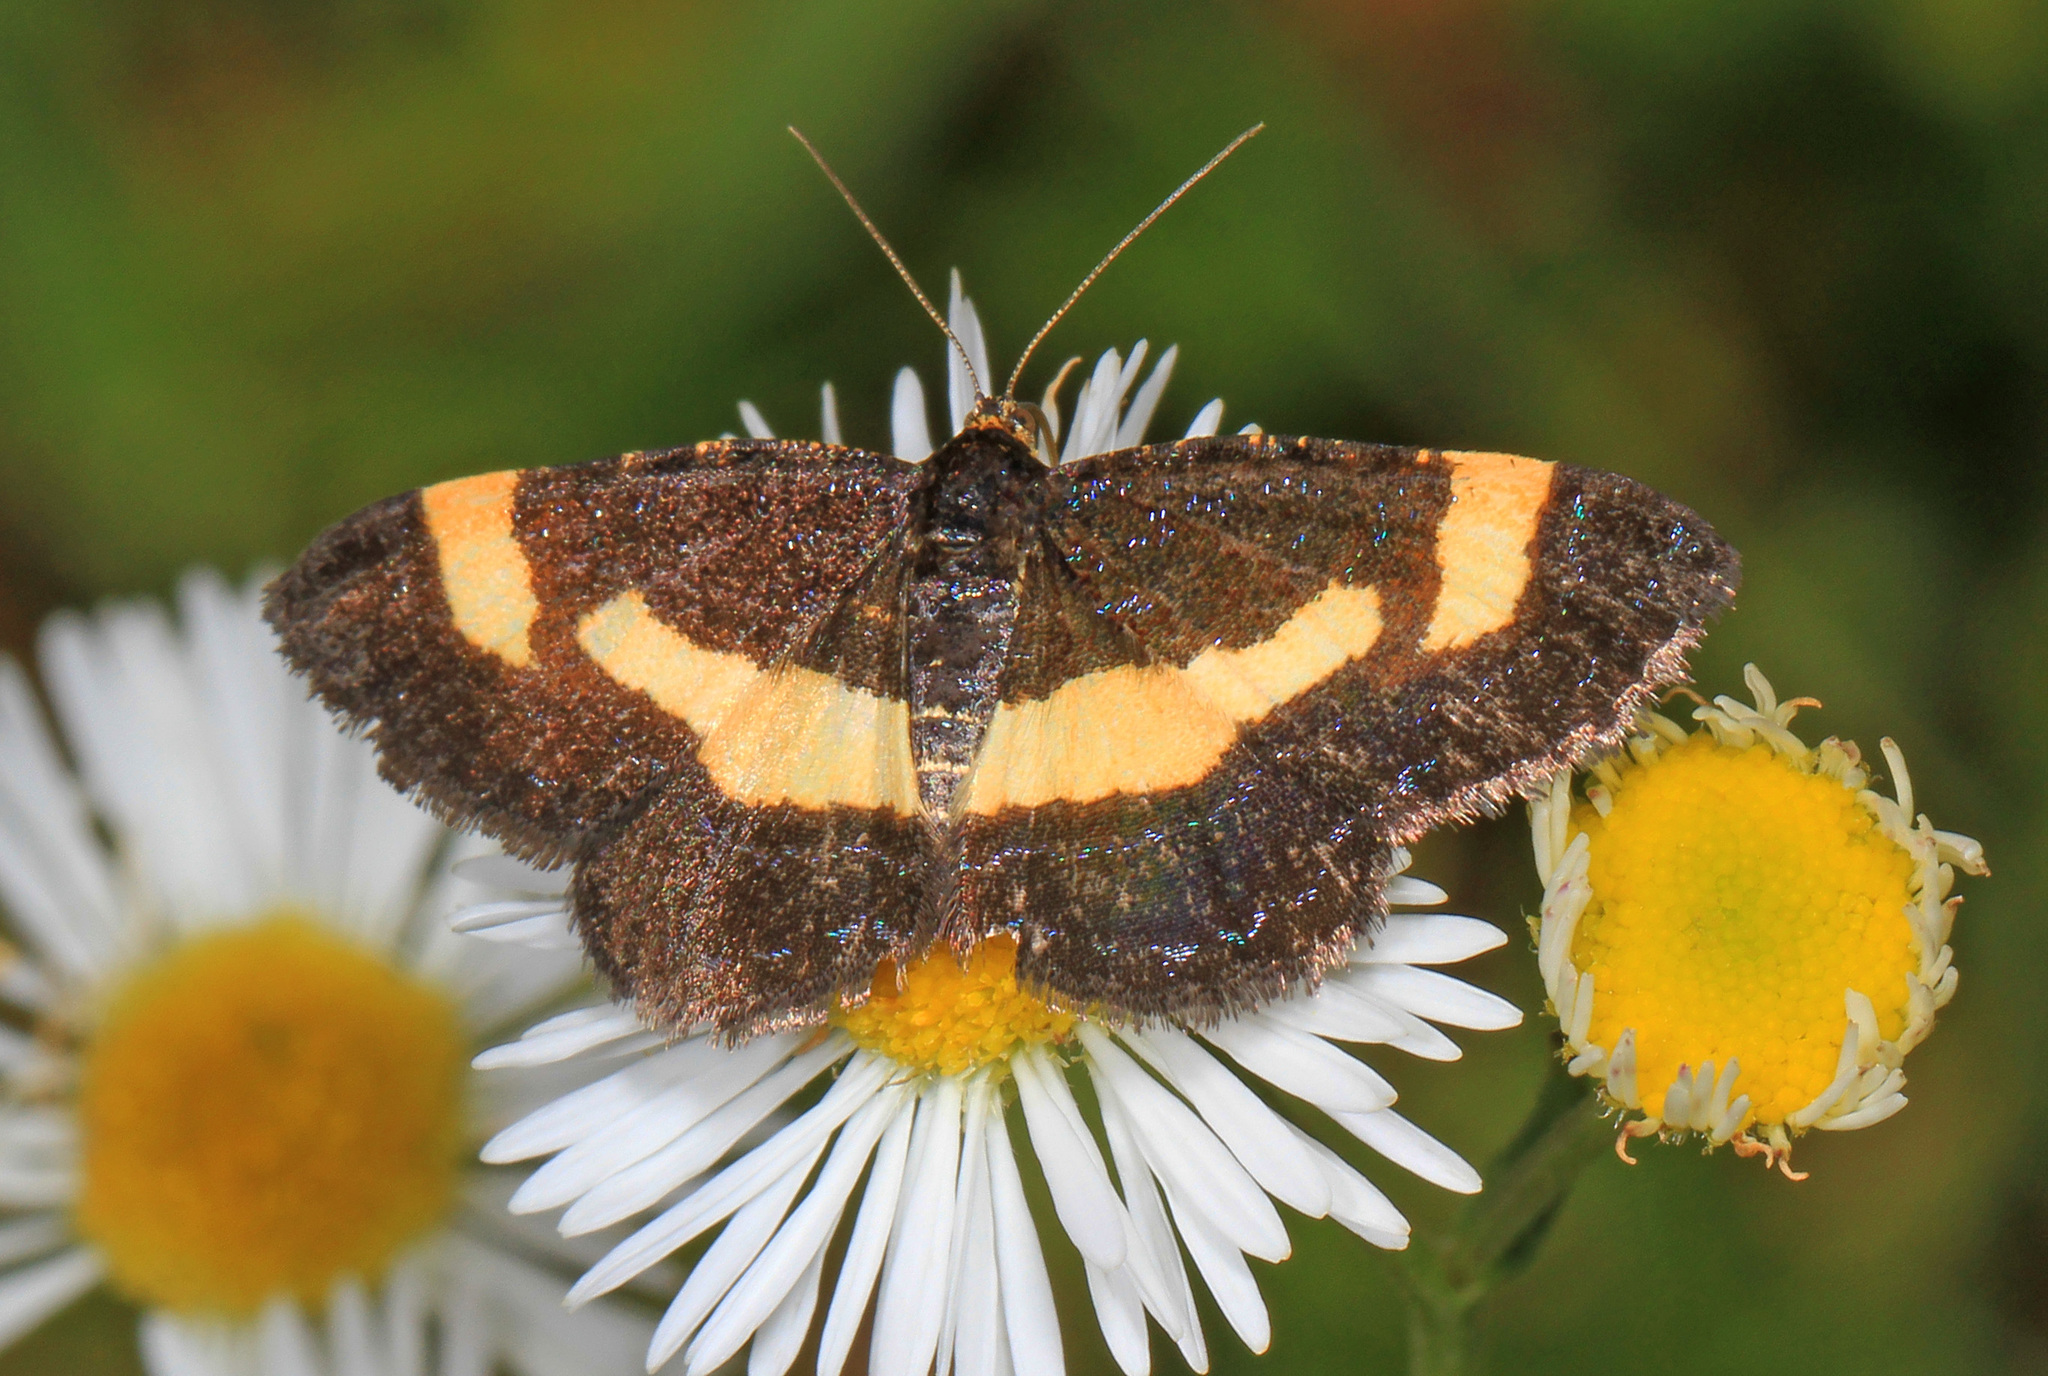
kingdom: Animalia
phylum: Arthropoda
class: Insecta
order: Lepidoptera
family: Geometridae
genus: Heliomata
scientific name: Heliomata infulata
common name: Rare spring moth
